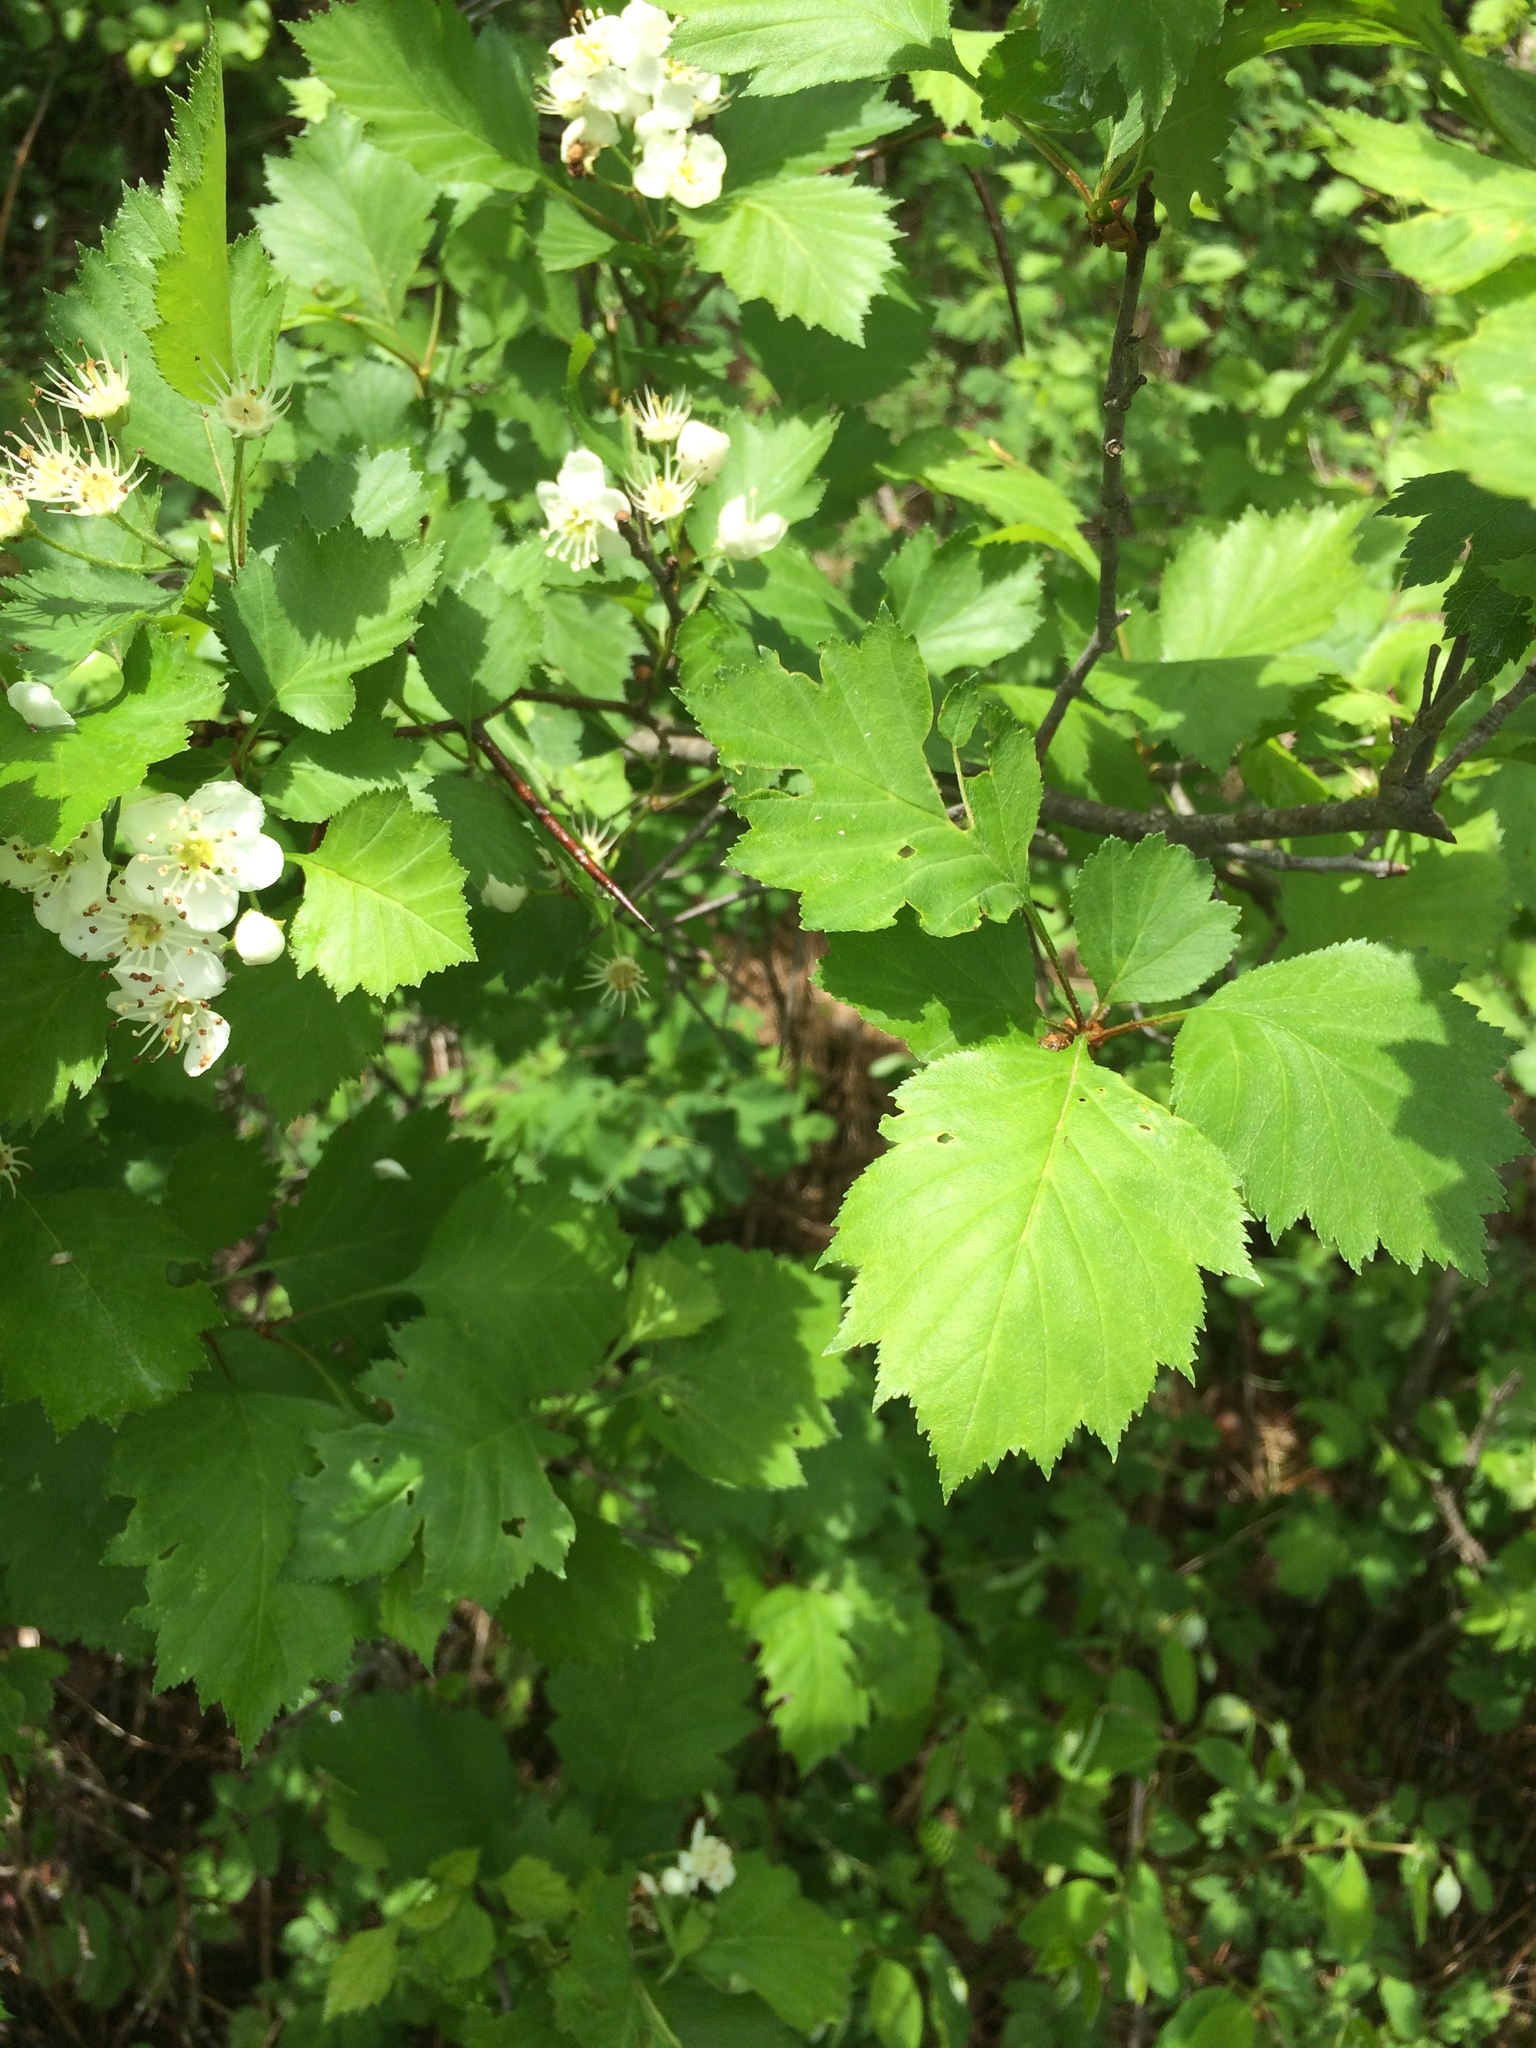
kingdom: Plantae
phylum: Tracheophyta
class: Magnoliopsida
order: Rosales
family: Rosaceae
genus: Crataegus
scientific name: Crataegus irrasa
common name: Unshorn hawthorn
